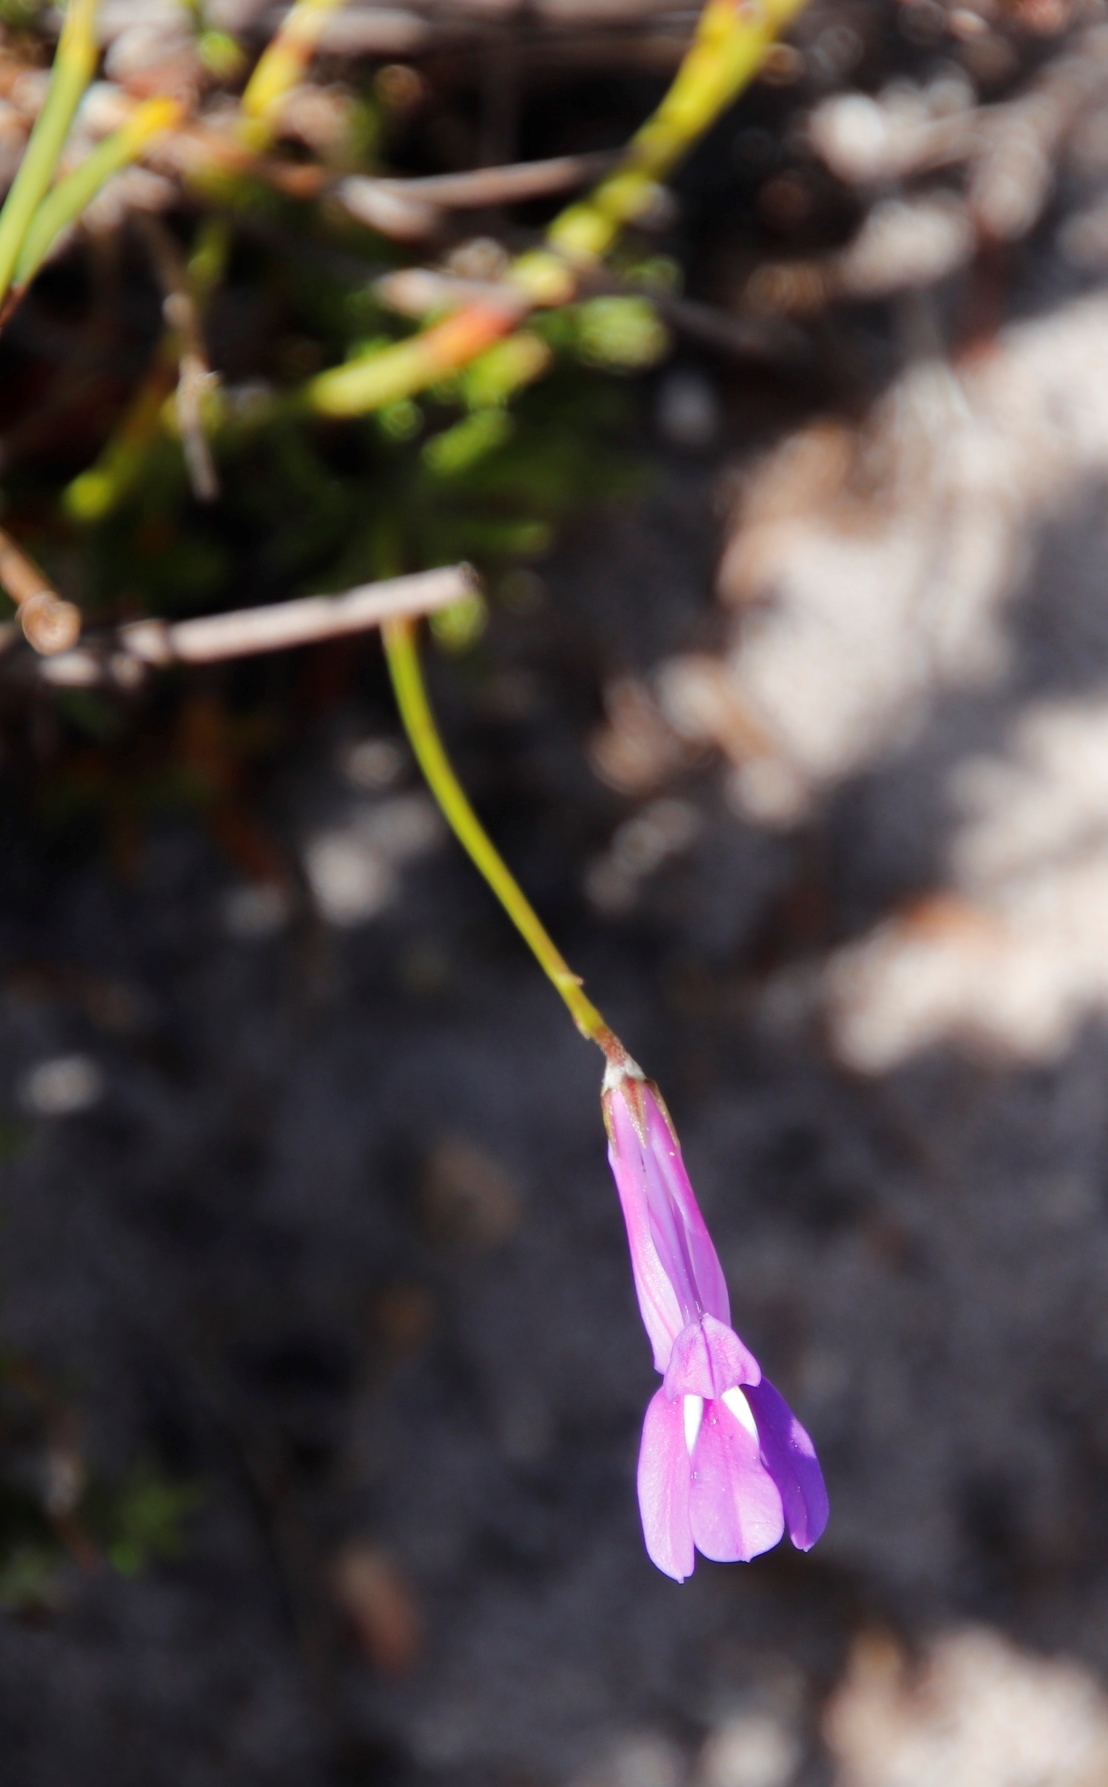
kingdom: Plantae
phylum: Tracheophyta
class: Magnoliopsida
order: Asterales
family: Campanulaceae
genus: Lobelia
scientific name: Lobelia coronopifolia
